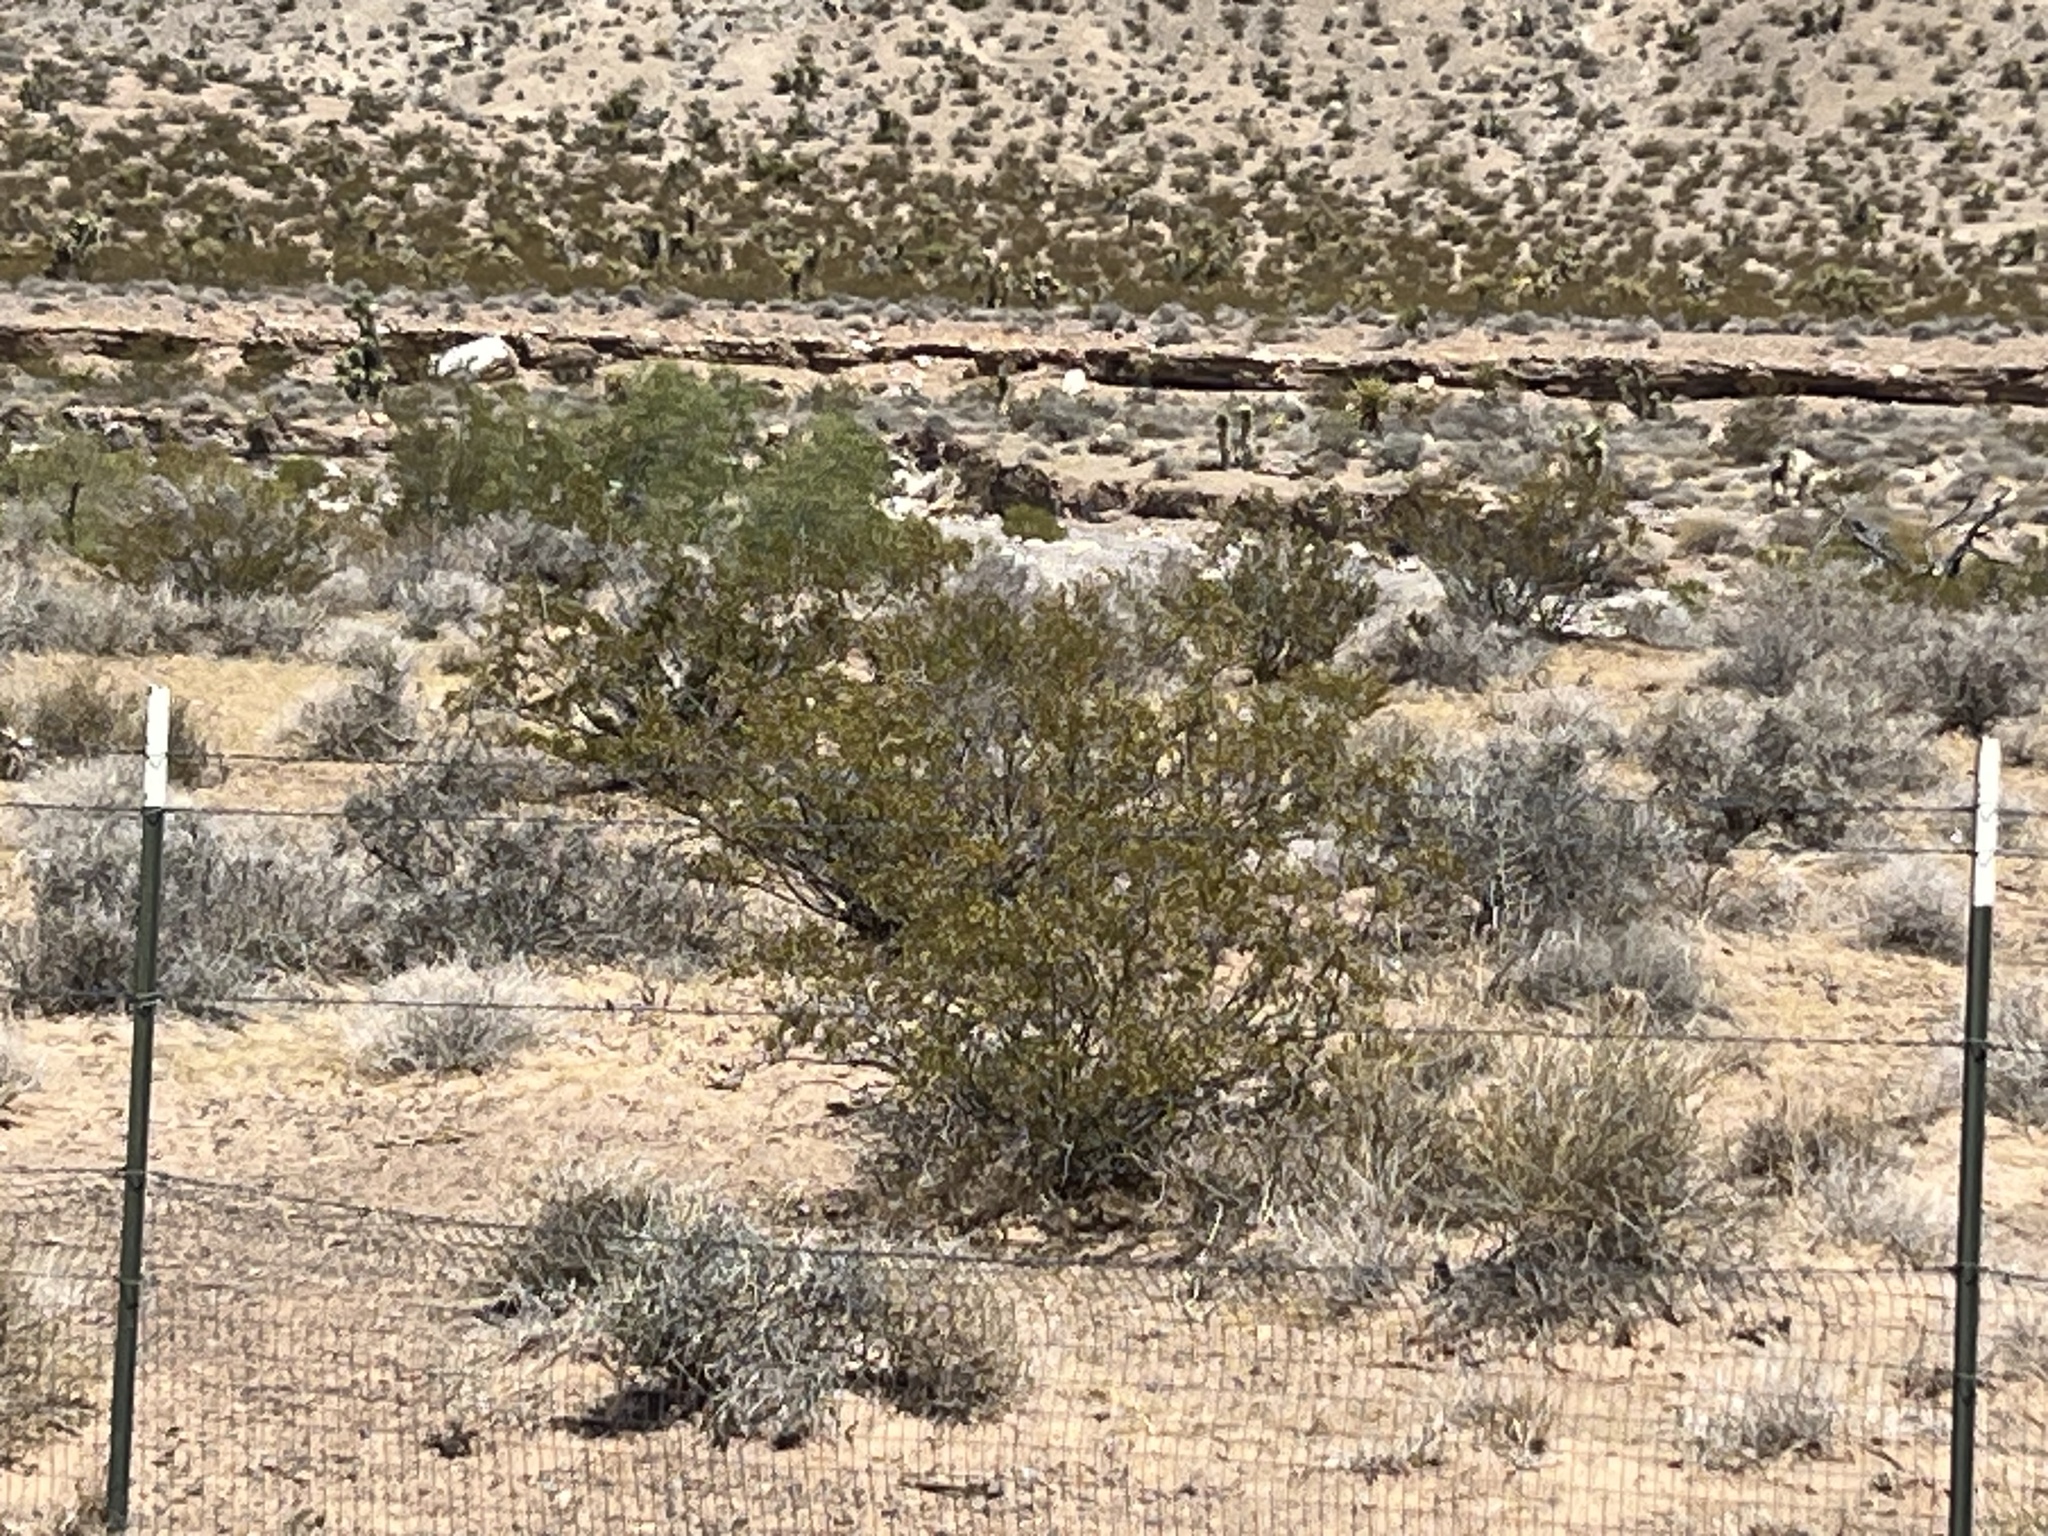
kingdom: Plantae
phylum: Tracheophyta
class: Magnoliopsida
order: Zygophyllales
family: Zygophyllaceae
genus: Larrea
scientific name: Larrea tridentata
